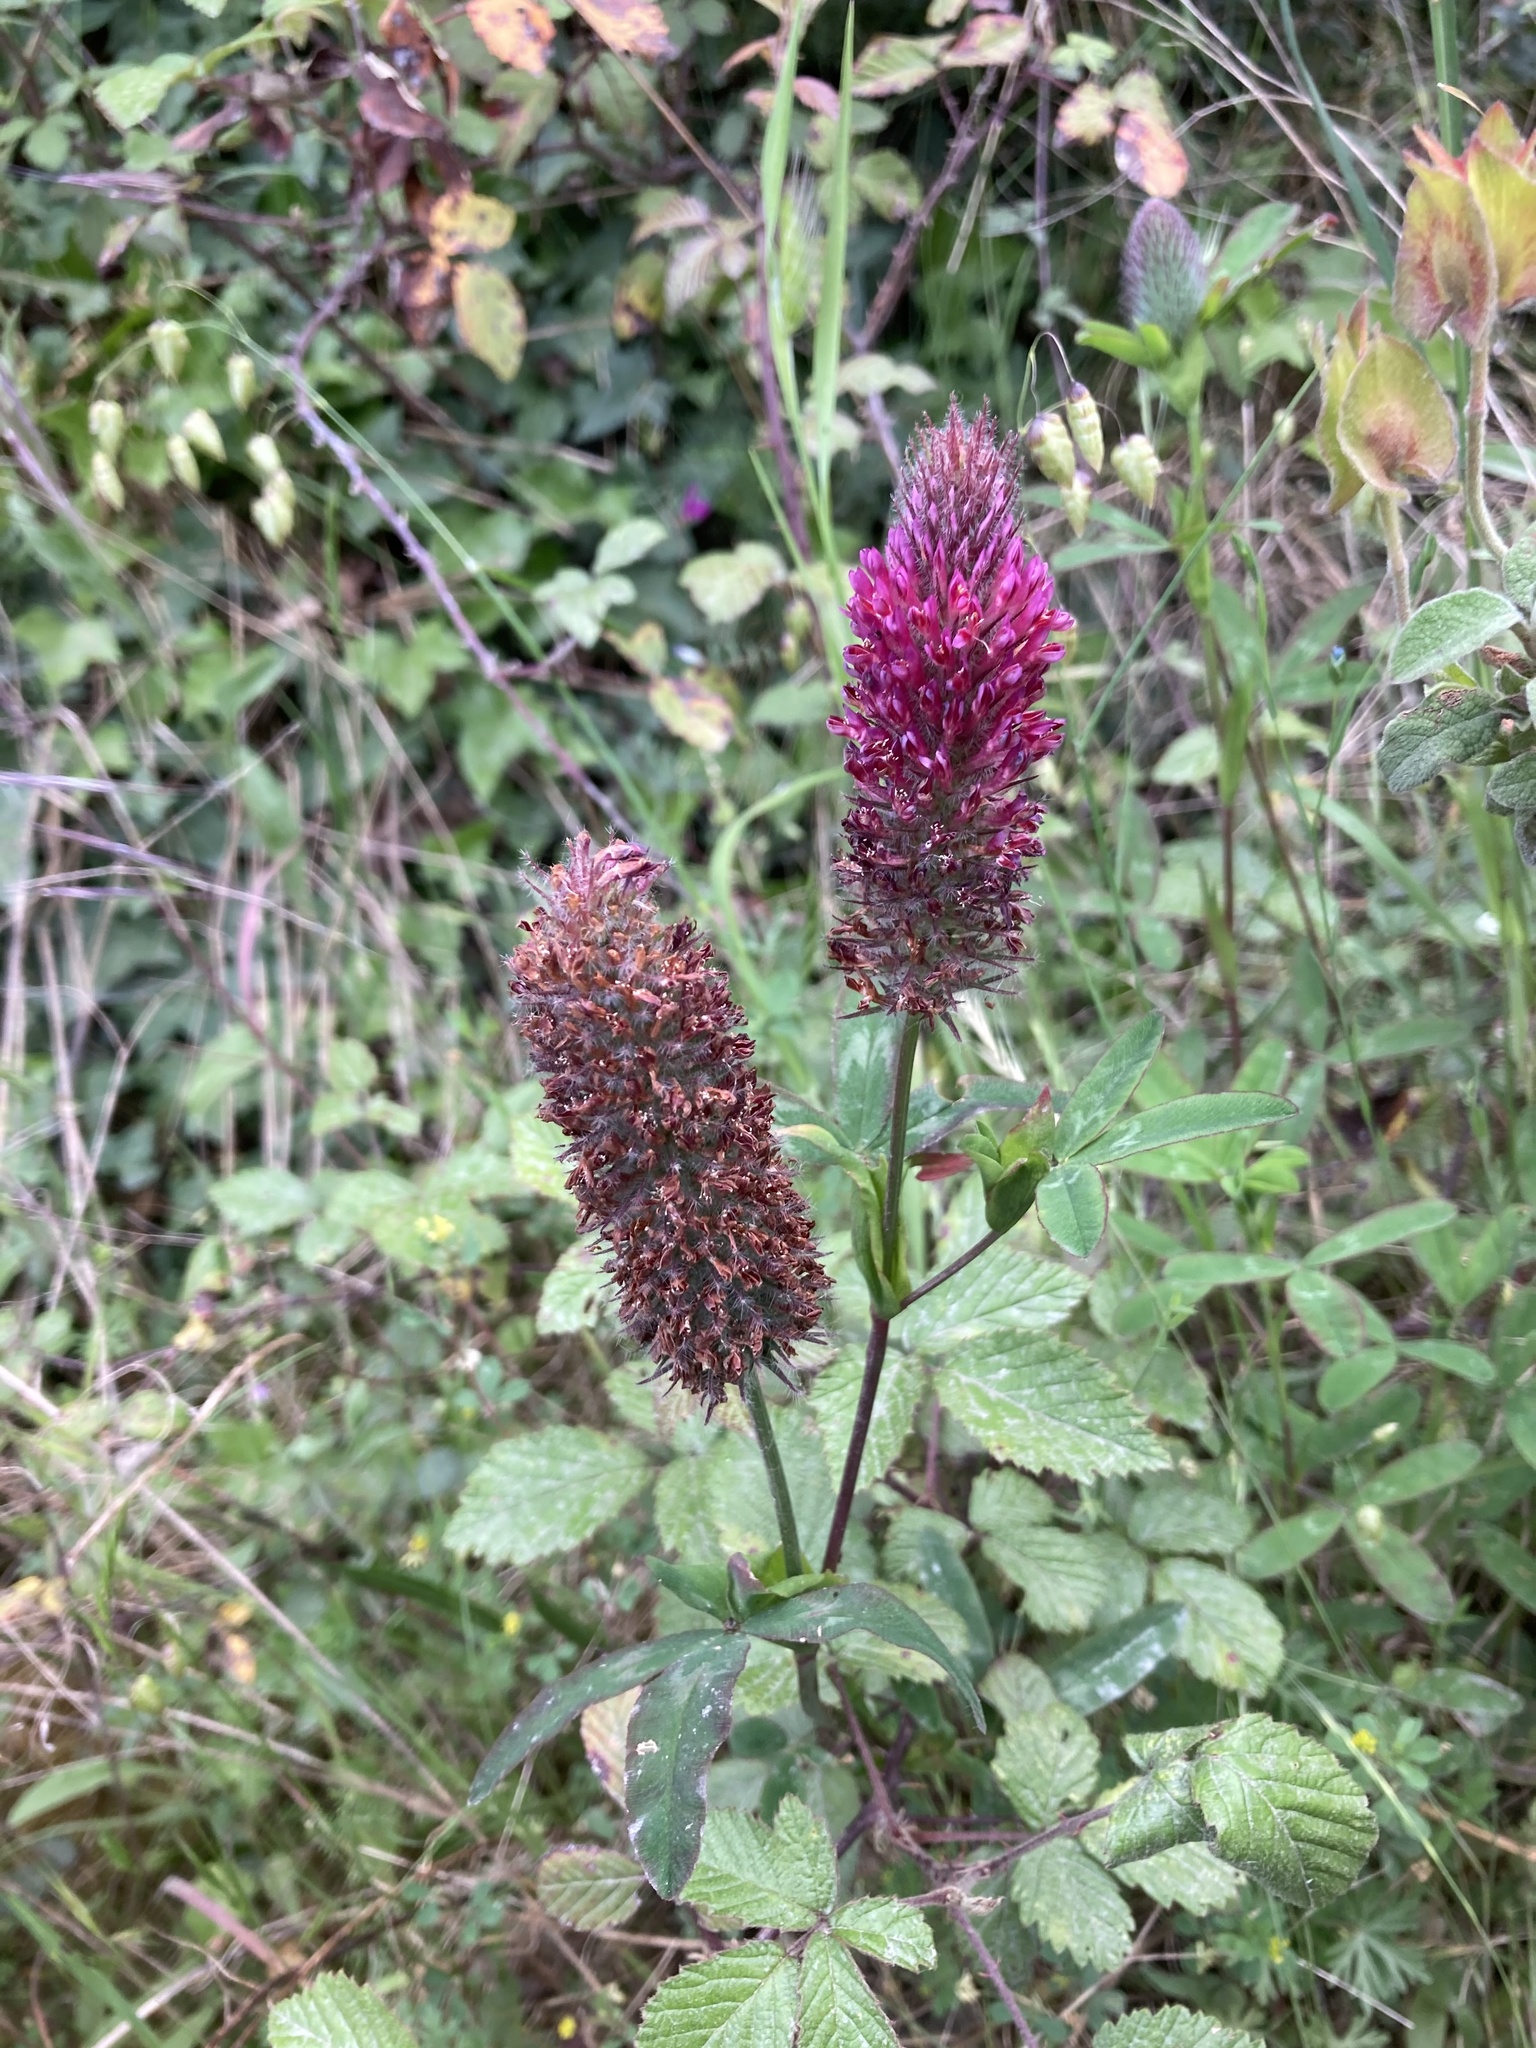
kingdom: Plantae
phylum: Tracheophyta
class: Magnoliopsida
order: Fabales
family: Fabaceae
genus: Trifolium
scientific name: Trifolium rubens
